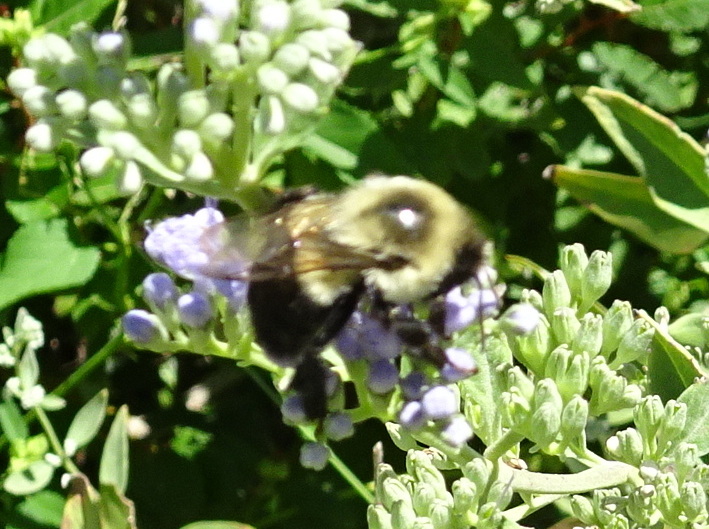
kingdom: Animalia
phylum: Arthropoda
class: Insecta
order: Hymenoptera
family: Apidae
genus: Bombus
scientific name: Bombus impatiens
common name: Common eastern bumble bee
